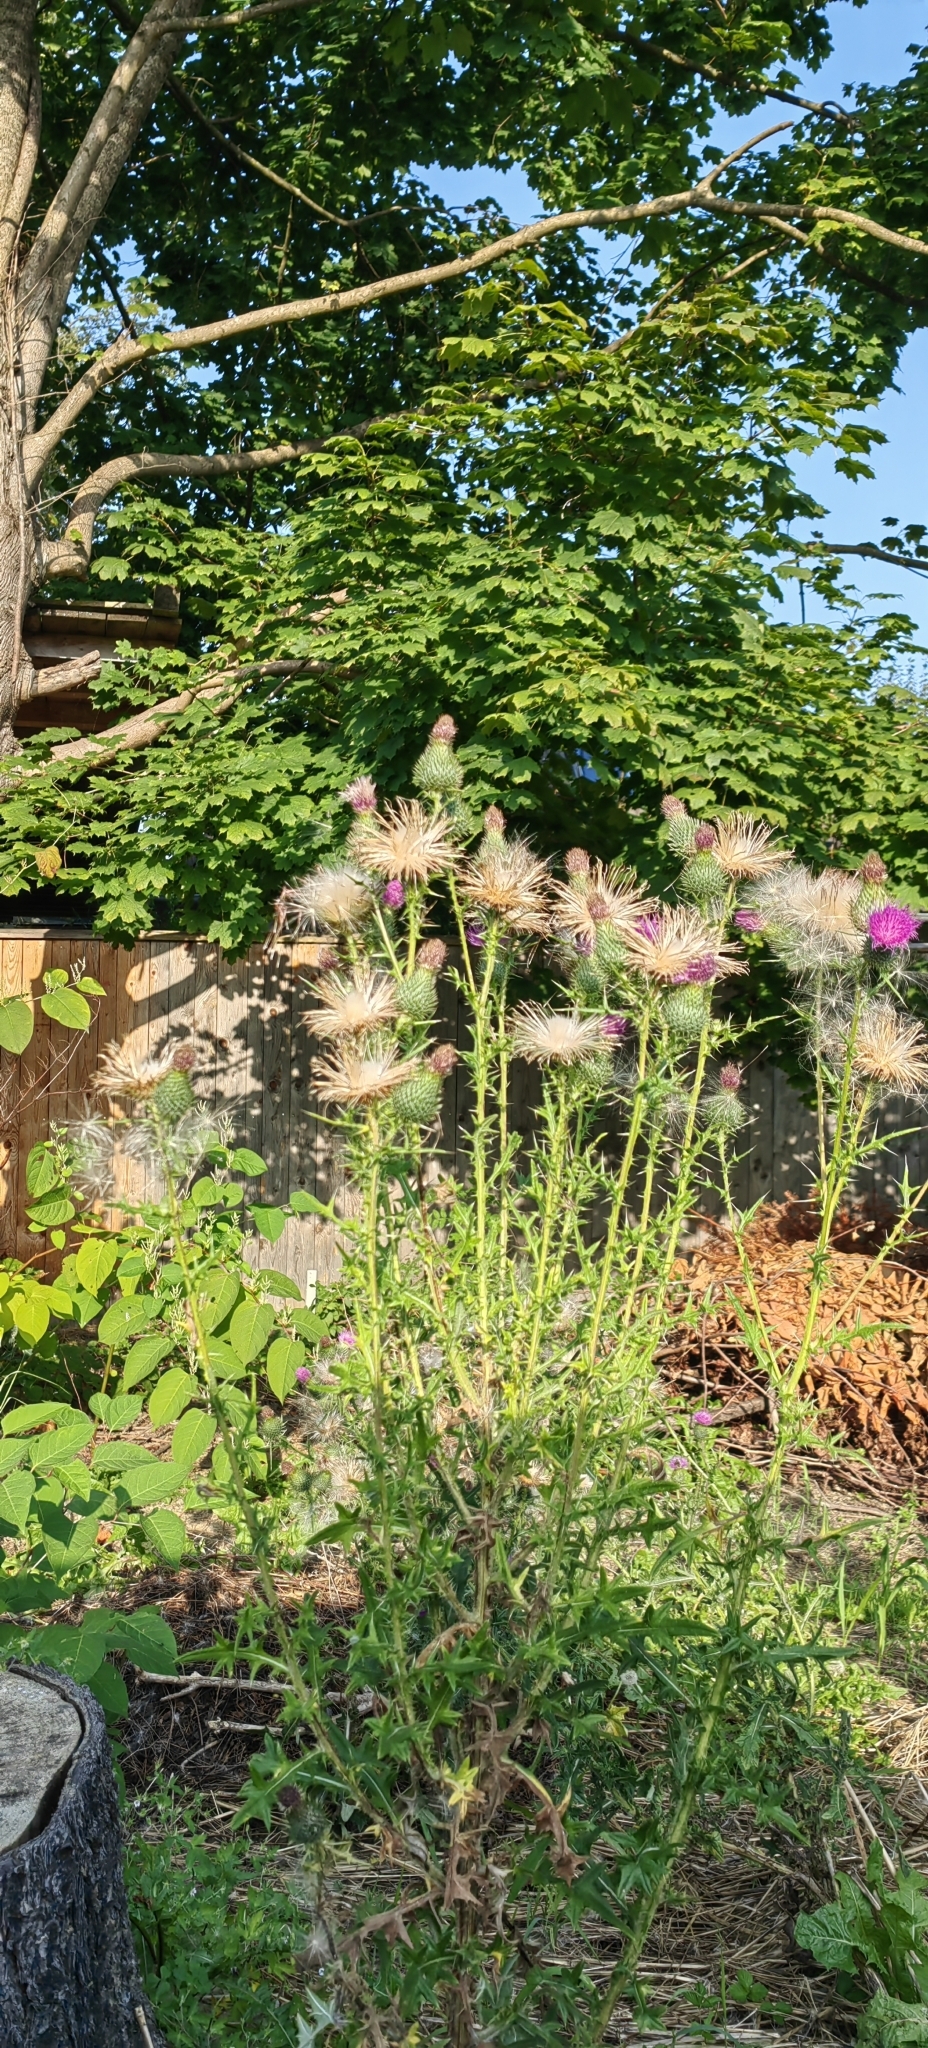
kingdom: Plantae
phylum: Tracheophyta
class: Magnoliopsida
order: Asterales
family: Asteraceae
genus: Cirsium
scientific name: Cirsium vulgare
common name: Bull thistle
